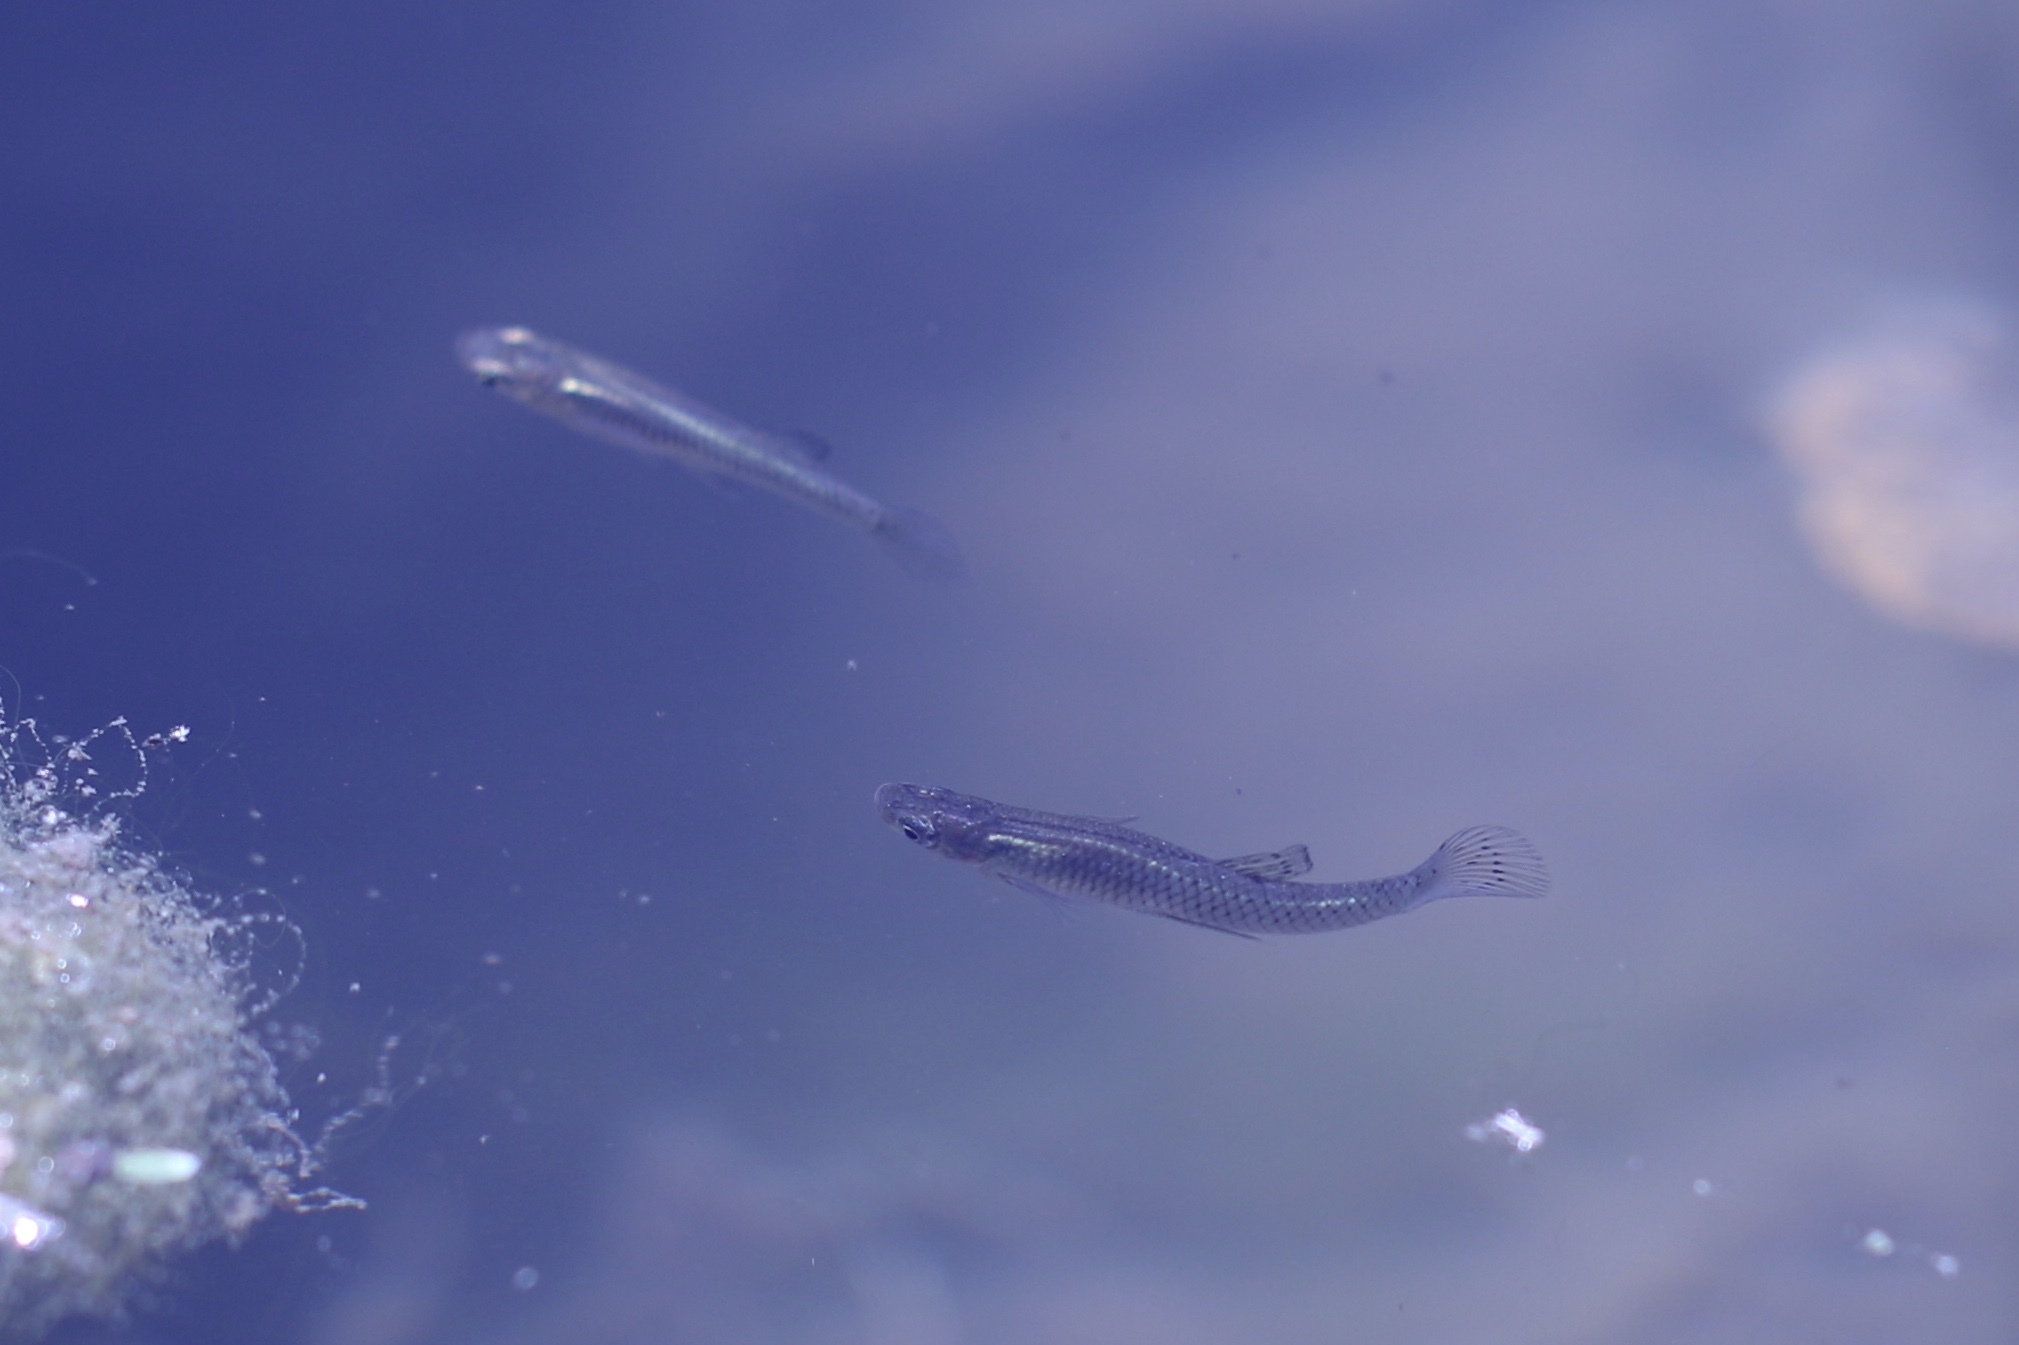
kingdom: Animalia
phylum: Chordata
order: Cyprinodontiformes
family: Poeciliidae
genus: Gambusia
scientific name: Gambusia affinis
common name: Mosquitofish
